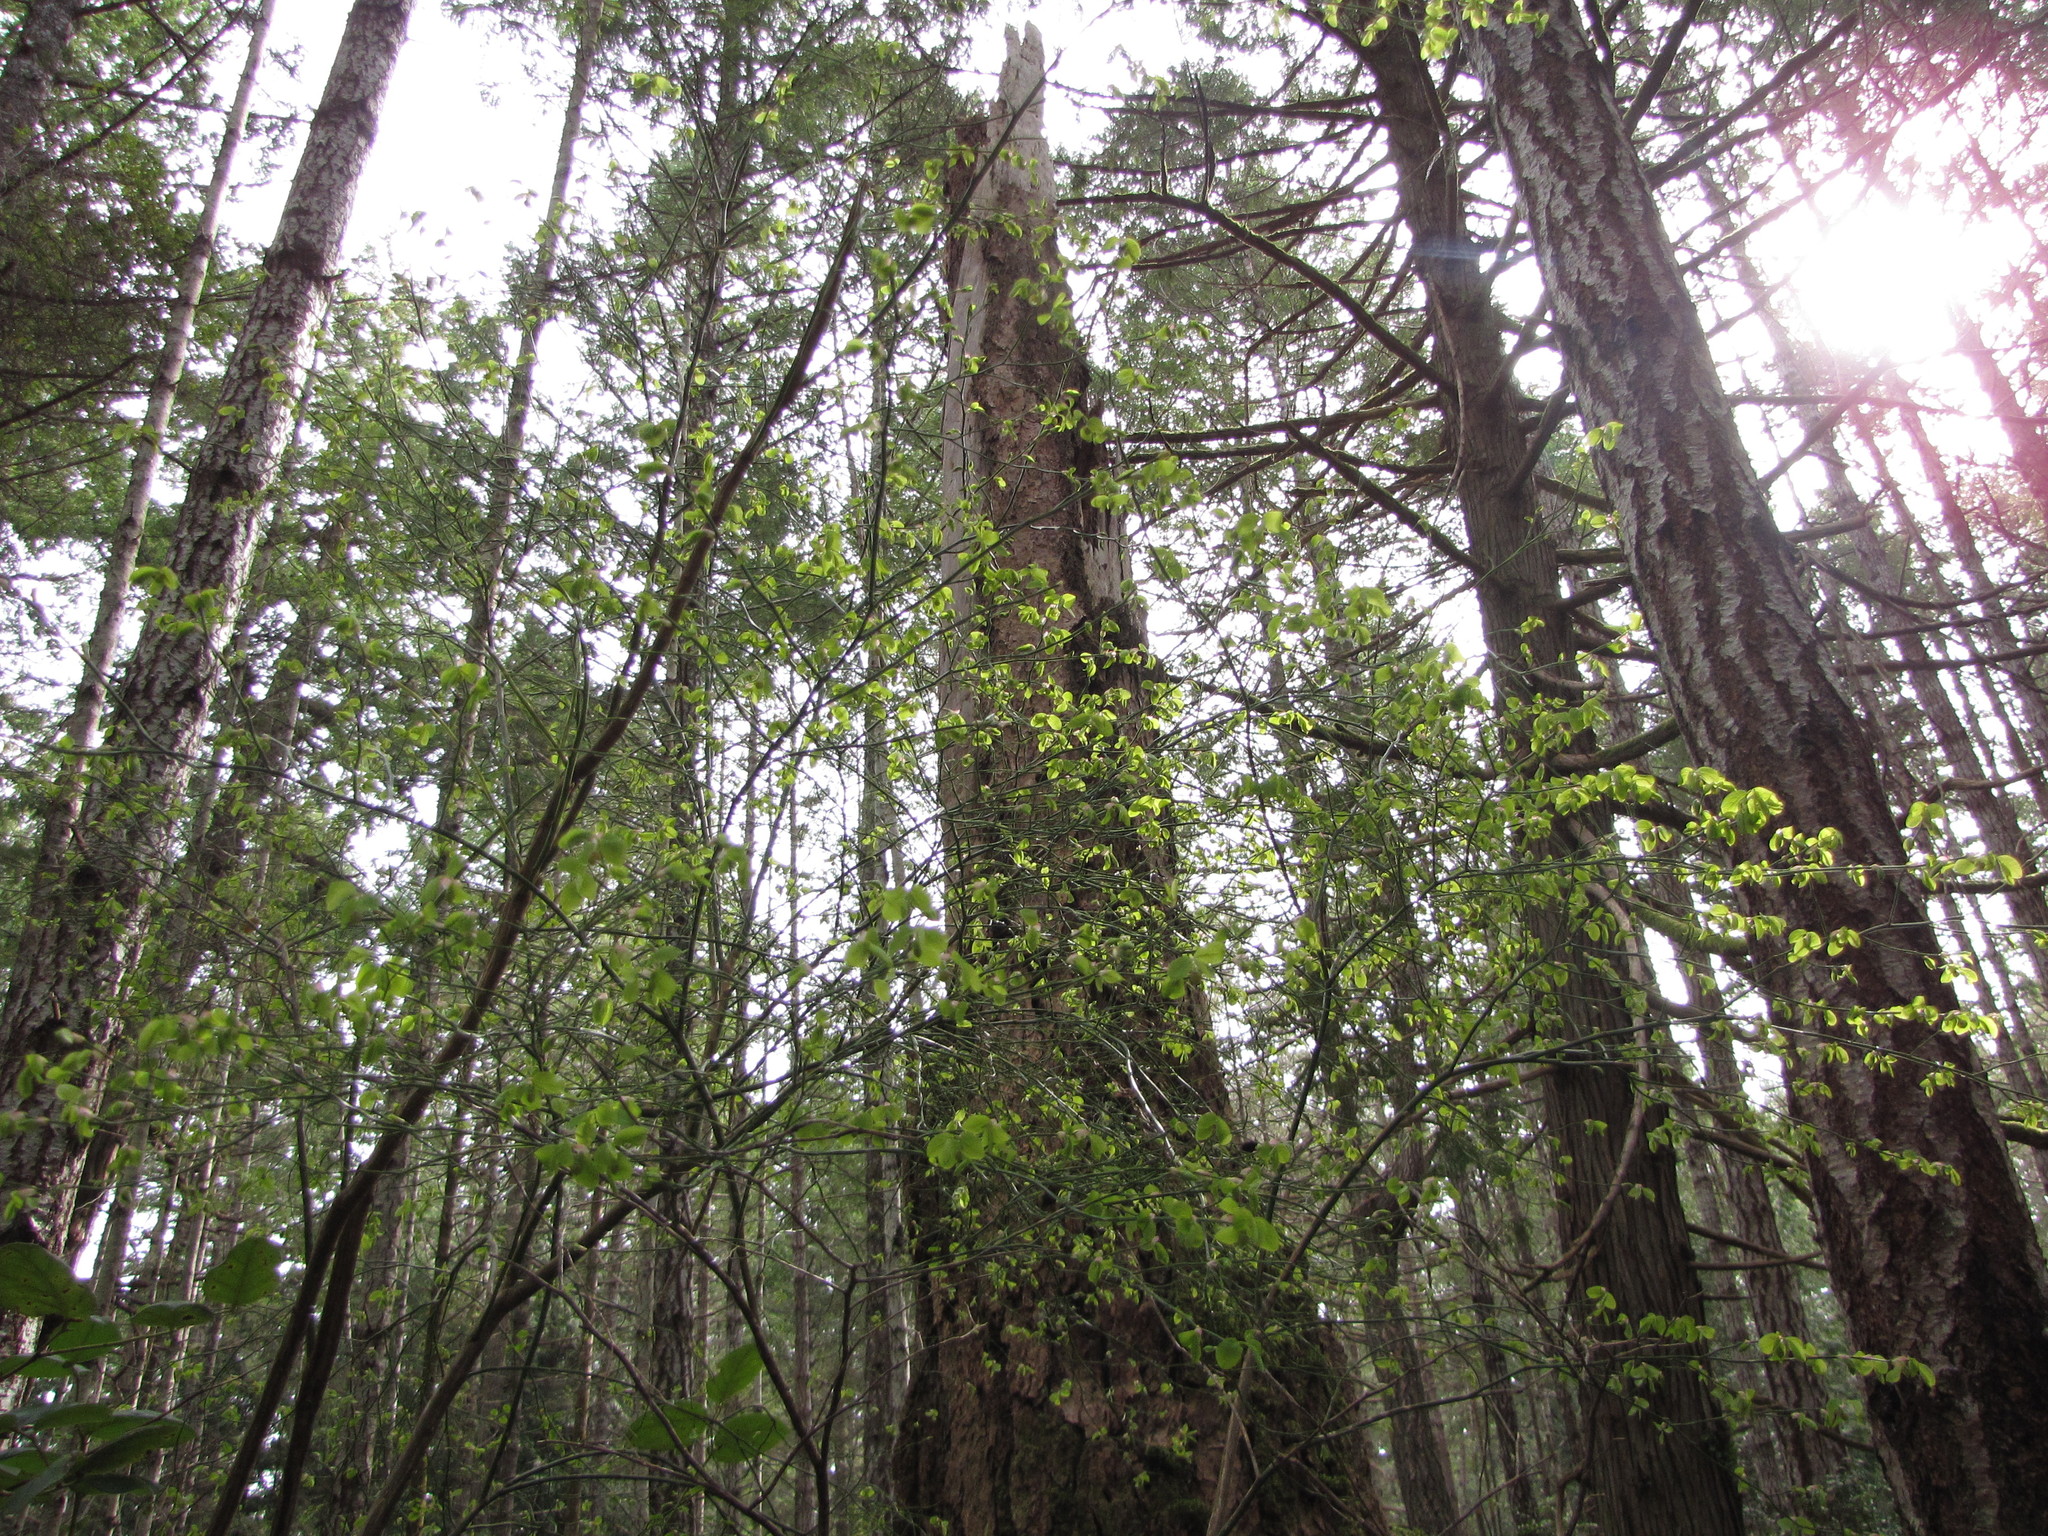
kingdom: Plantae
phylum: Tracheophyta
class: Magnoliopsida
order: Ericales
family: Ericaceae
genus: Vaccinium
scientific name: Vaccinium parvifolium
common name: Red-huckleberry
